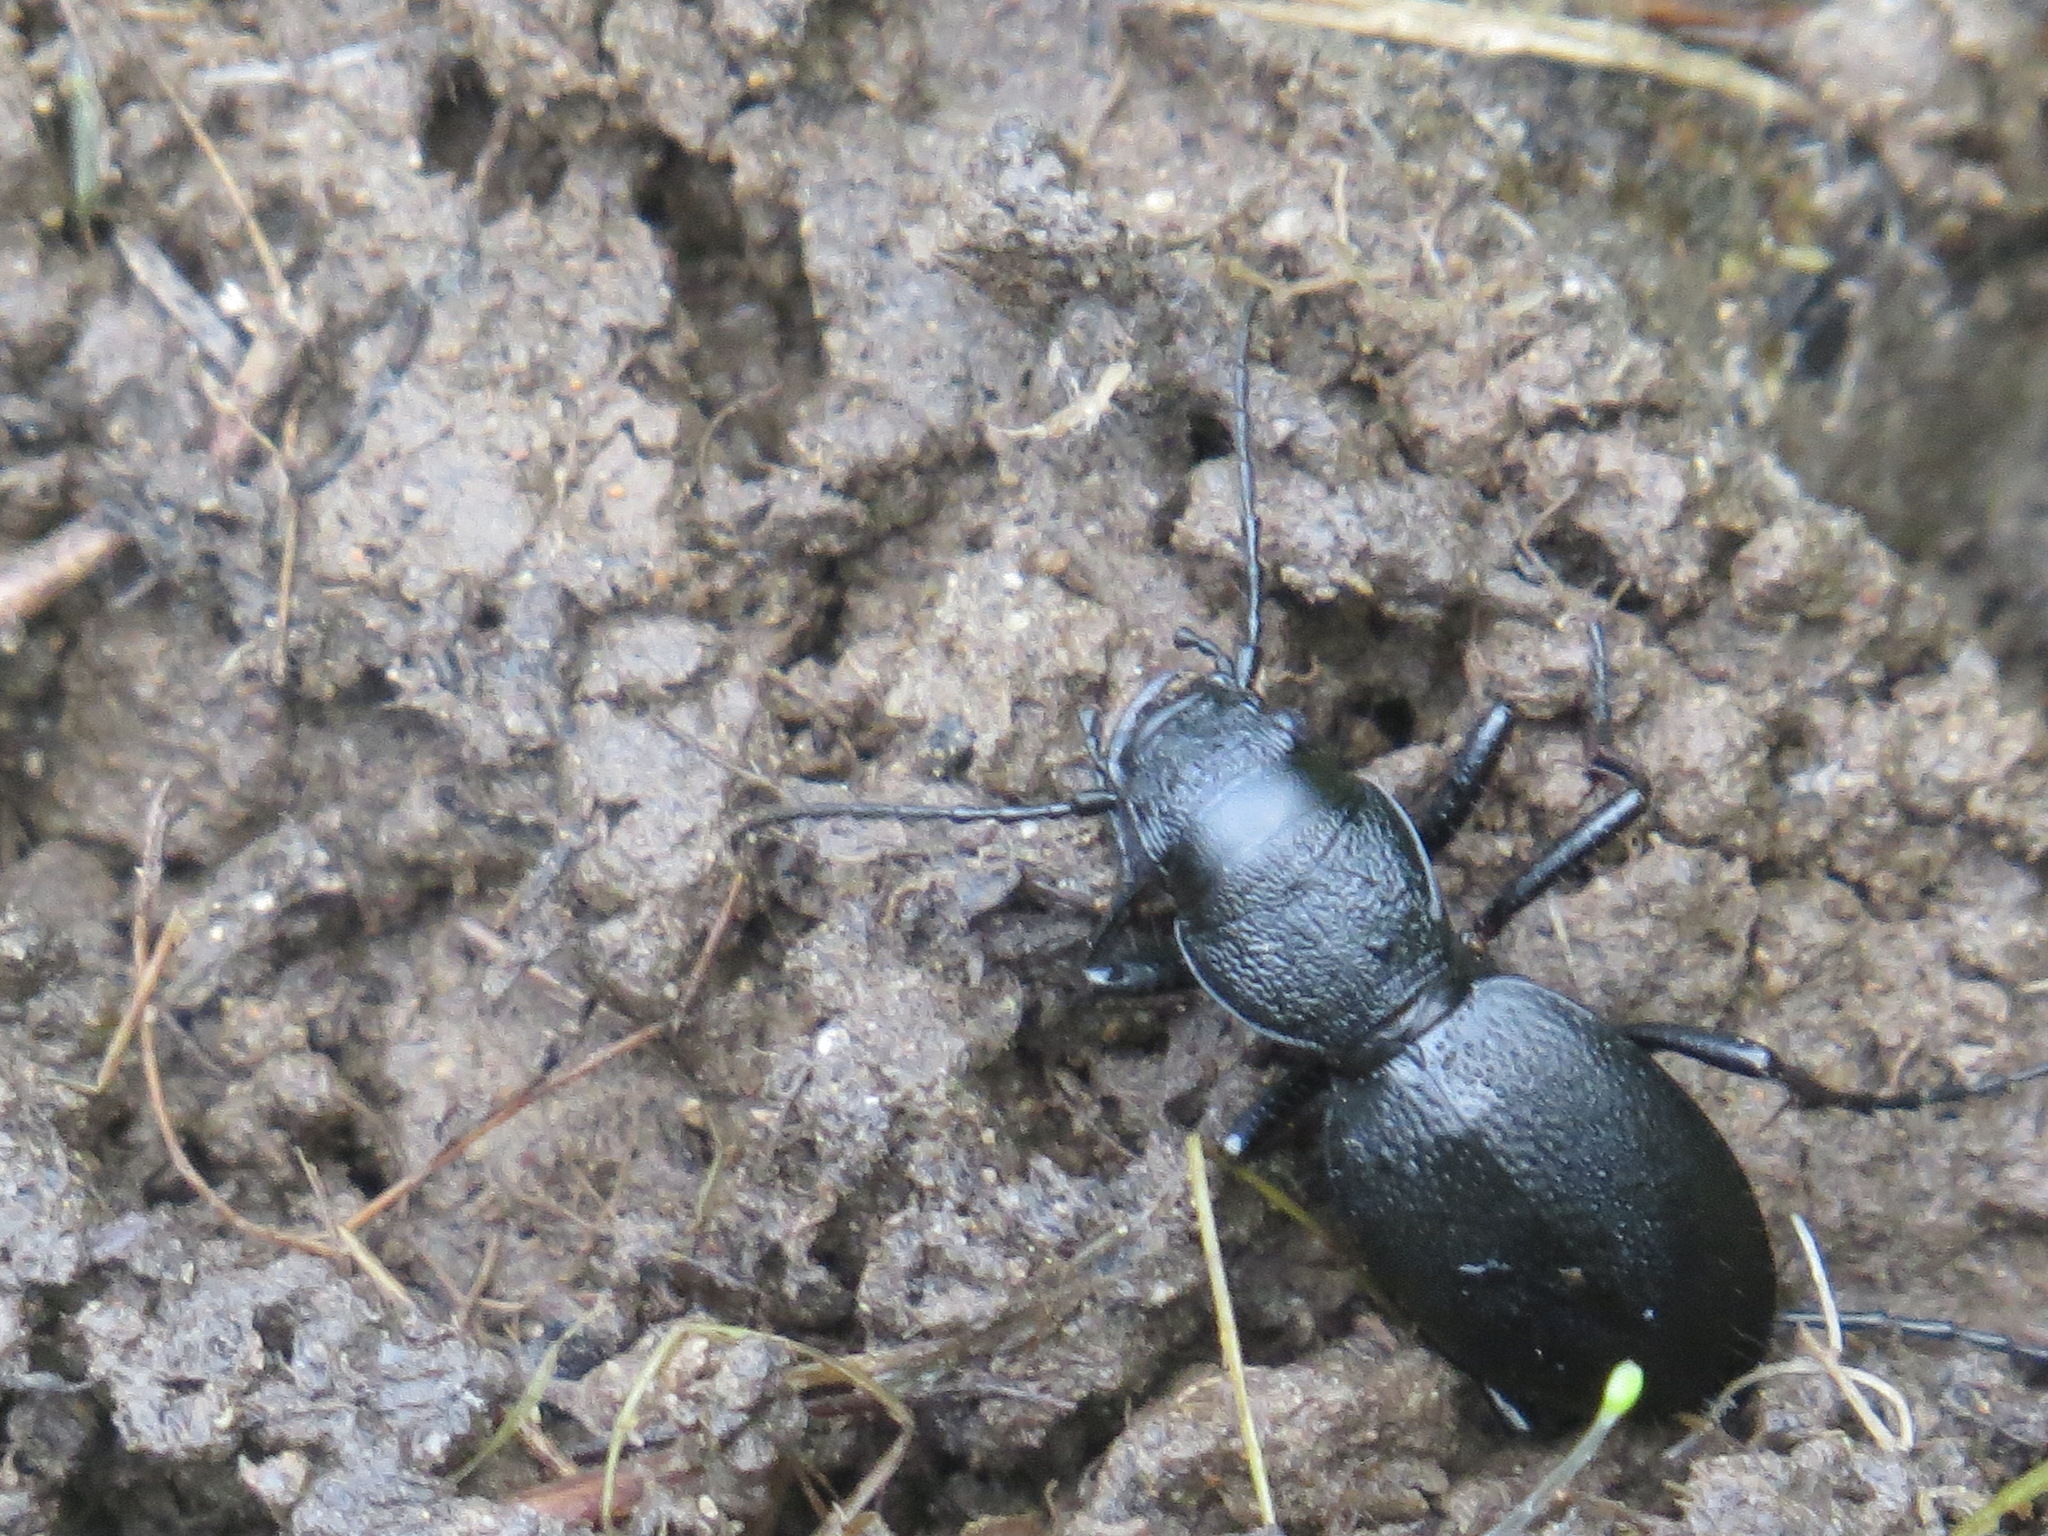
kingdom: Animalia
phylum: Arthropoda
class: Insecta
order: Coleoptera
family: Carabidae
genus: Omus
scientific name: Omus californicus
